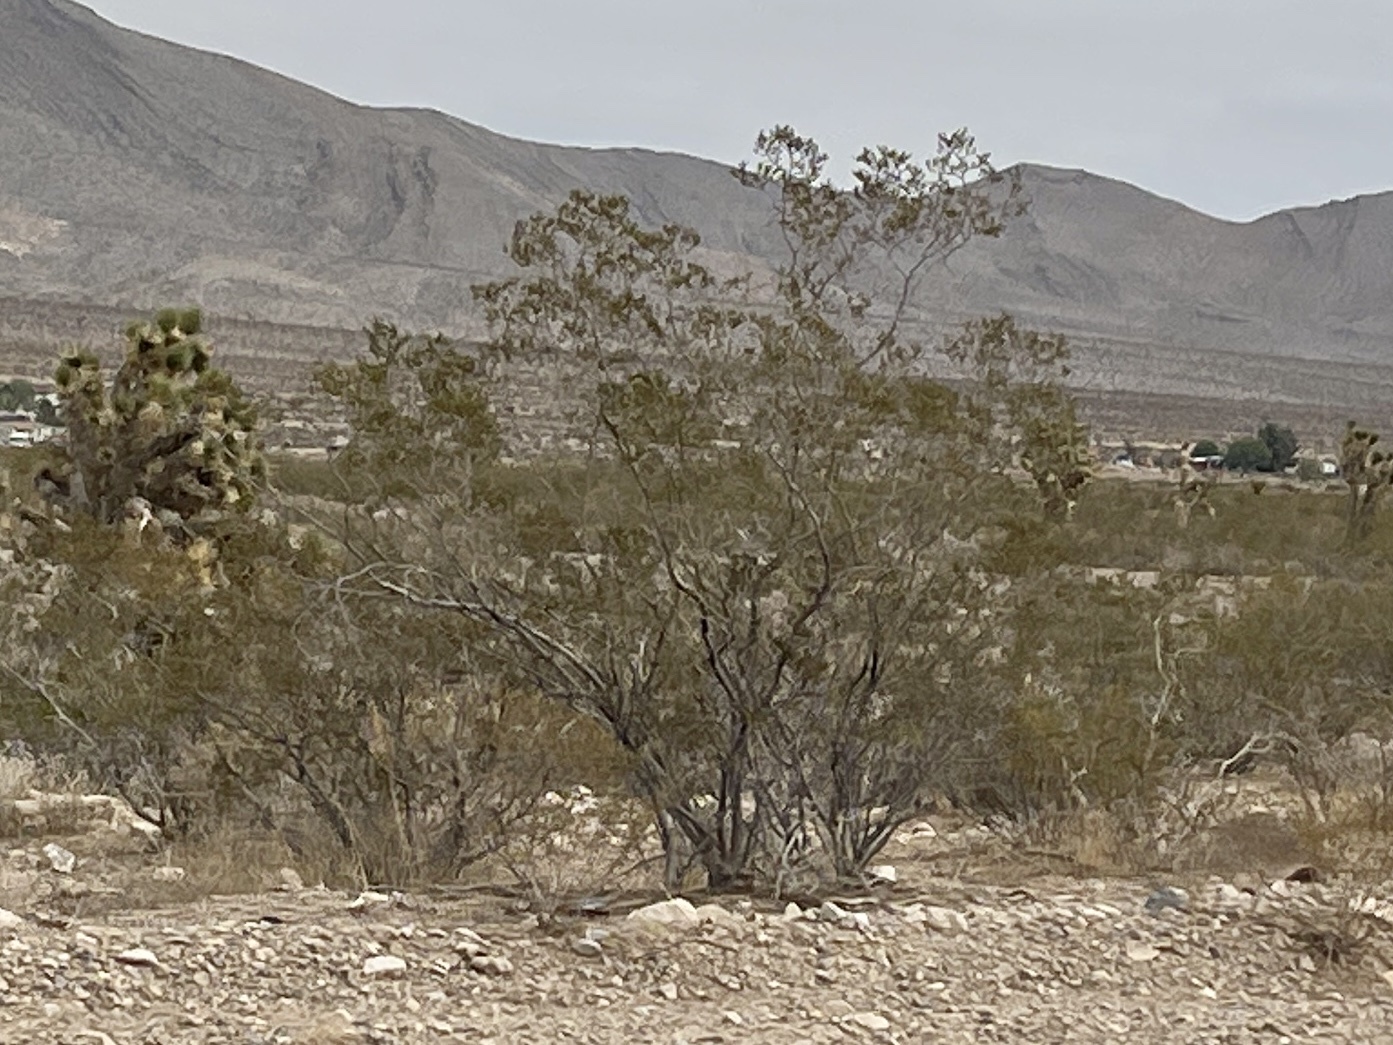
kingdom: Plantae
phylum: Tracheophyta
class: Magnoliopsida
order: Zygophyllales
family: Zygophyllaceae
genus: Larrea
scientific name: Larrea tridentata
